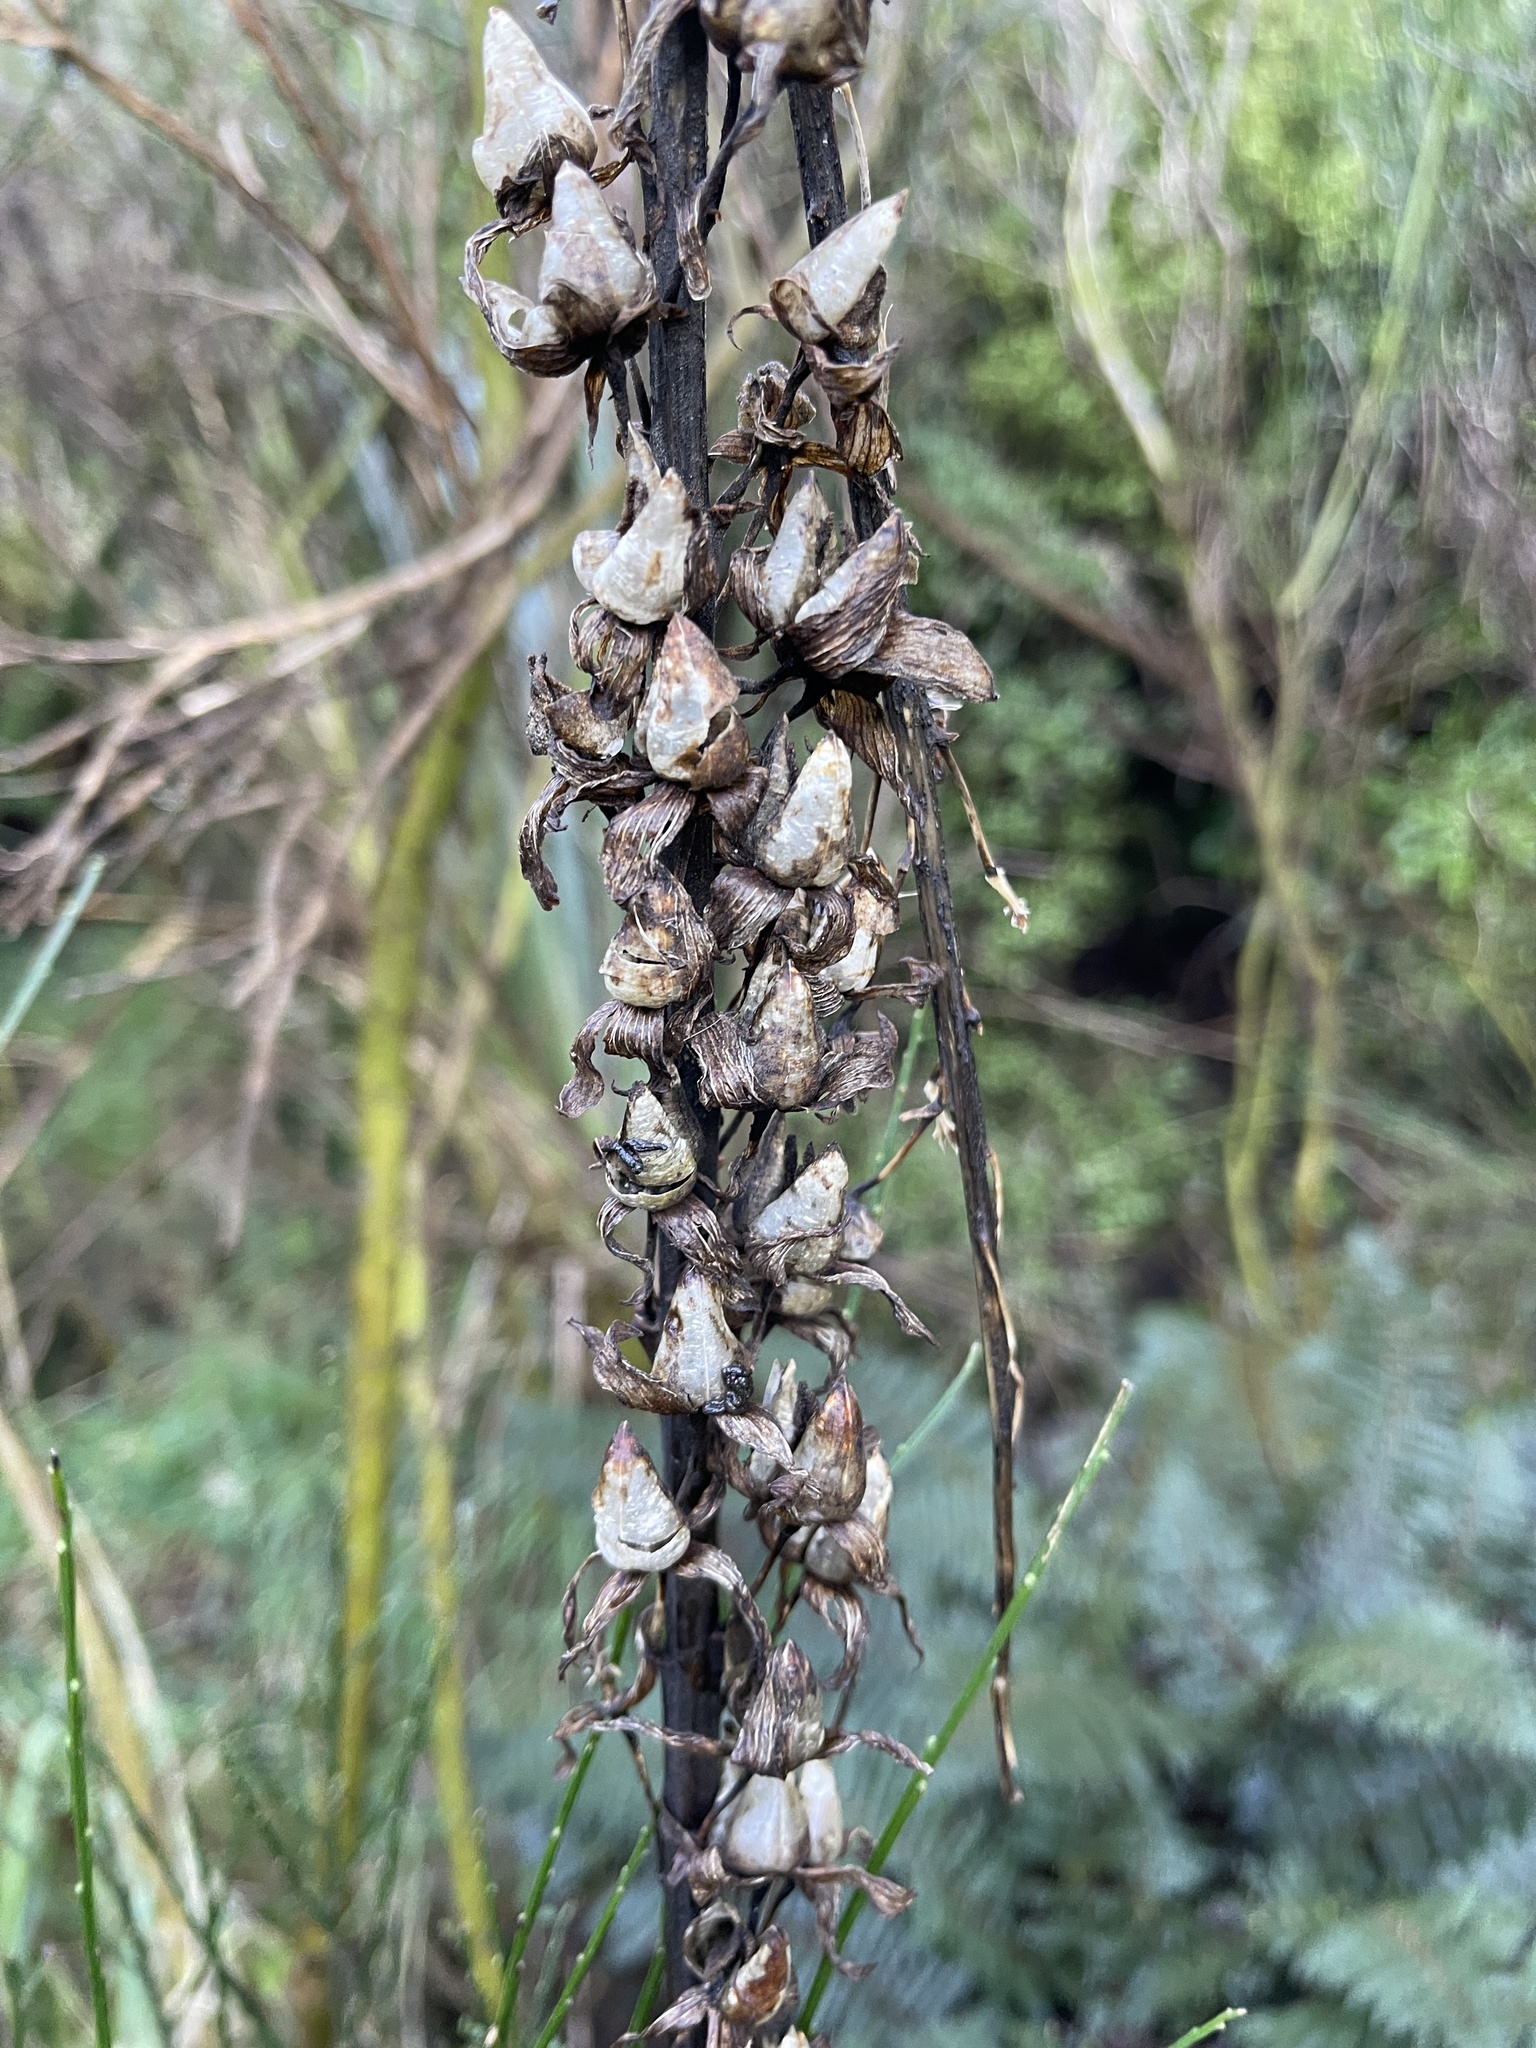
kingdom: Plantae
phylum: Tracheophyta
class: Magnoliopsida
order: Lamiales
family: Plantaginaceae
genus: Digitalis
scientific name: Digitalis purpurea
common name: Foxglove
